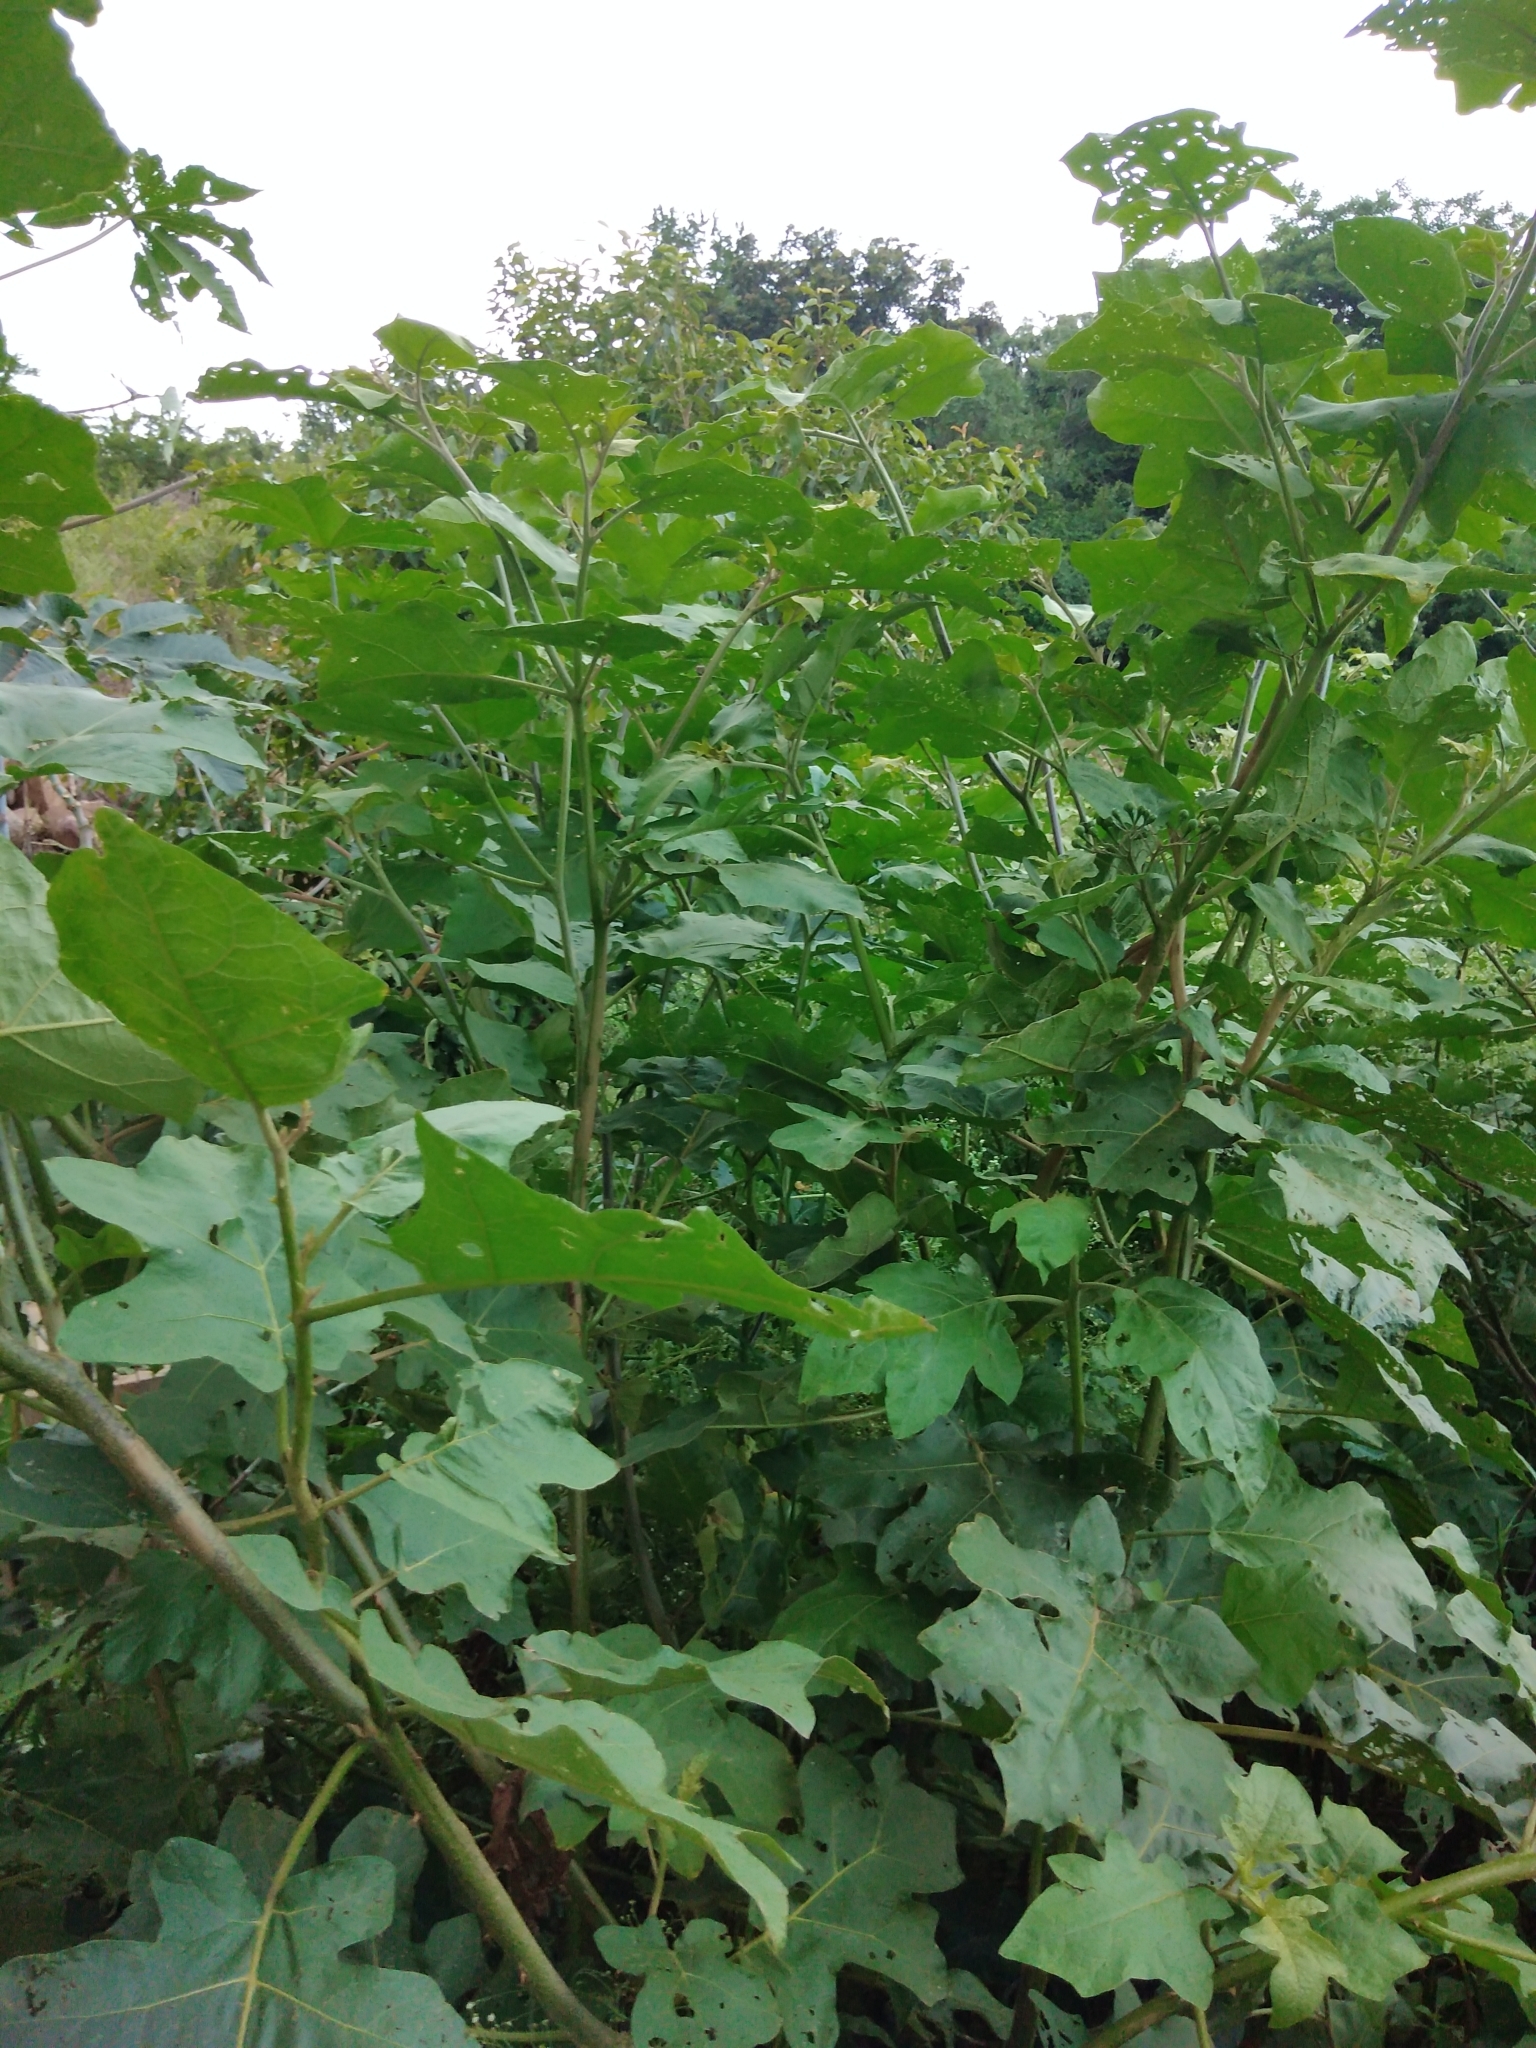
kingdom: Plantae
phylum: Tracheophyta
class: Magnoliopsida
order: Solanales
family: Solanaceae
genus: Solanum
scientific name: Solanum torvum
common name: Turkey berry
